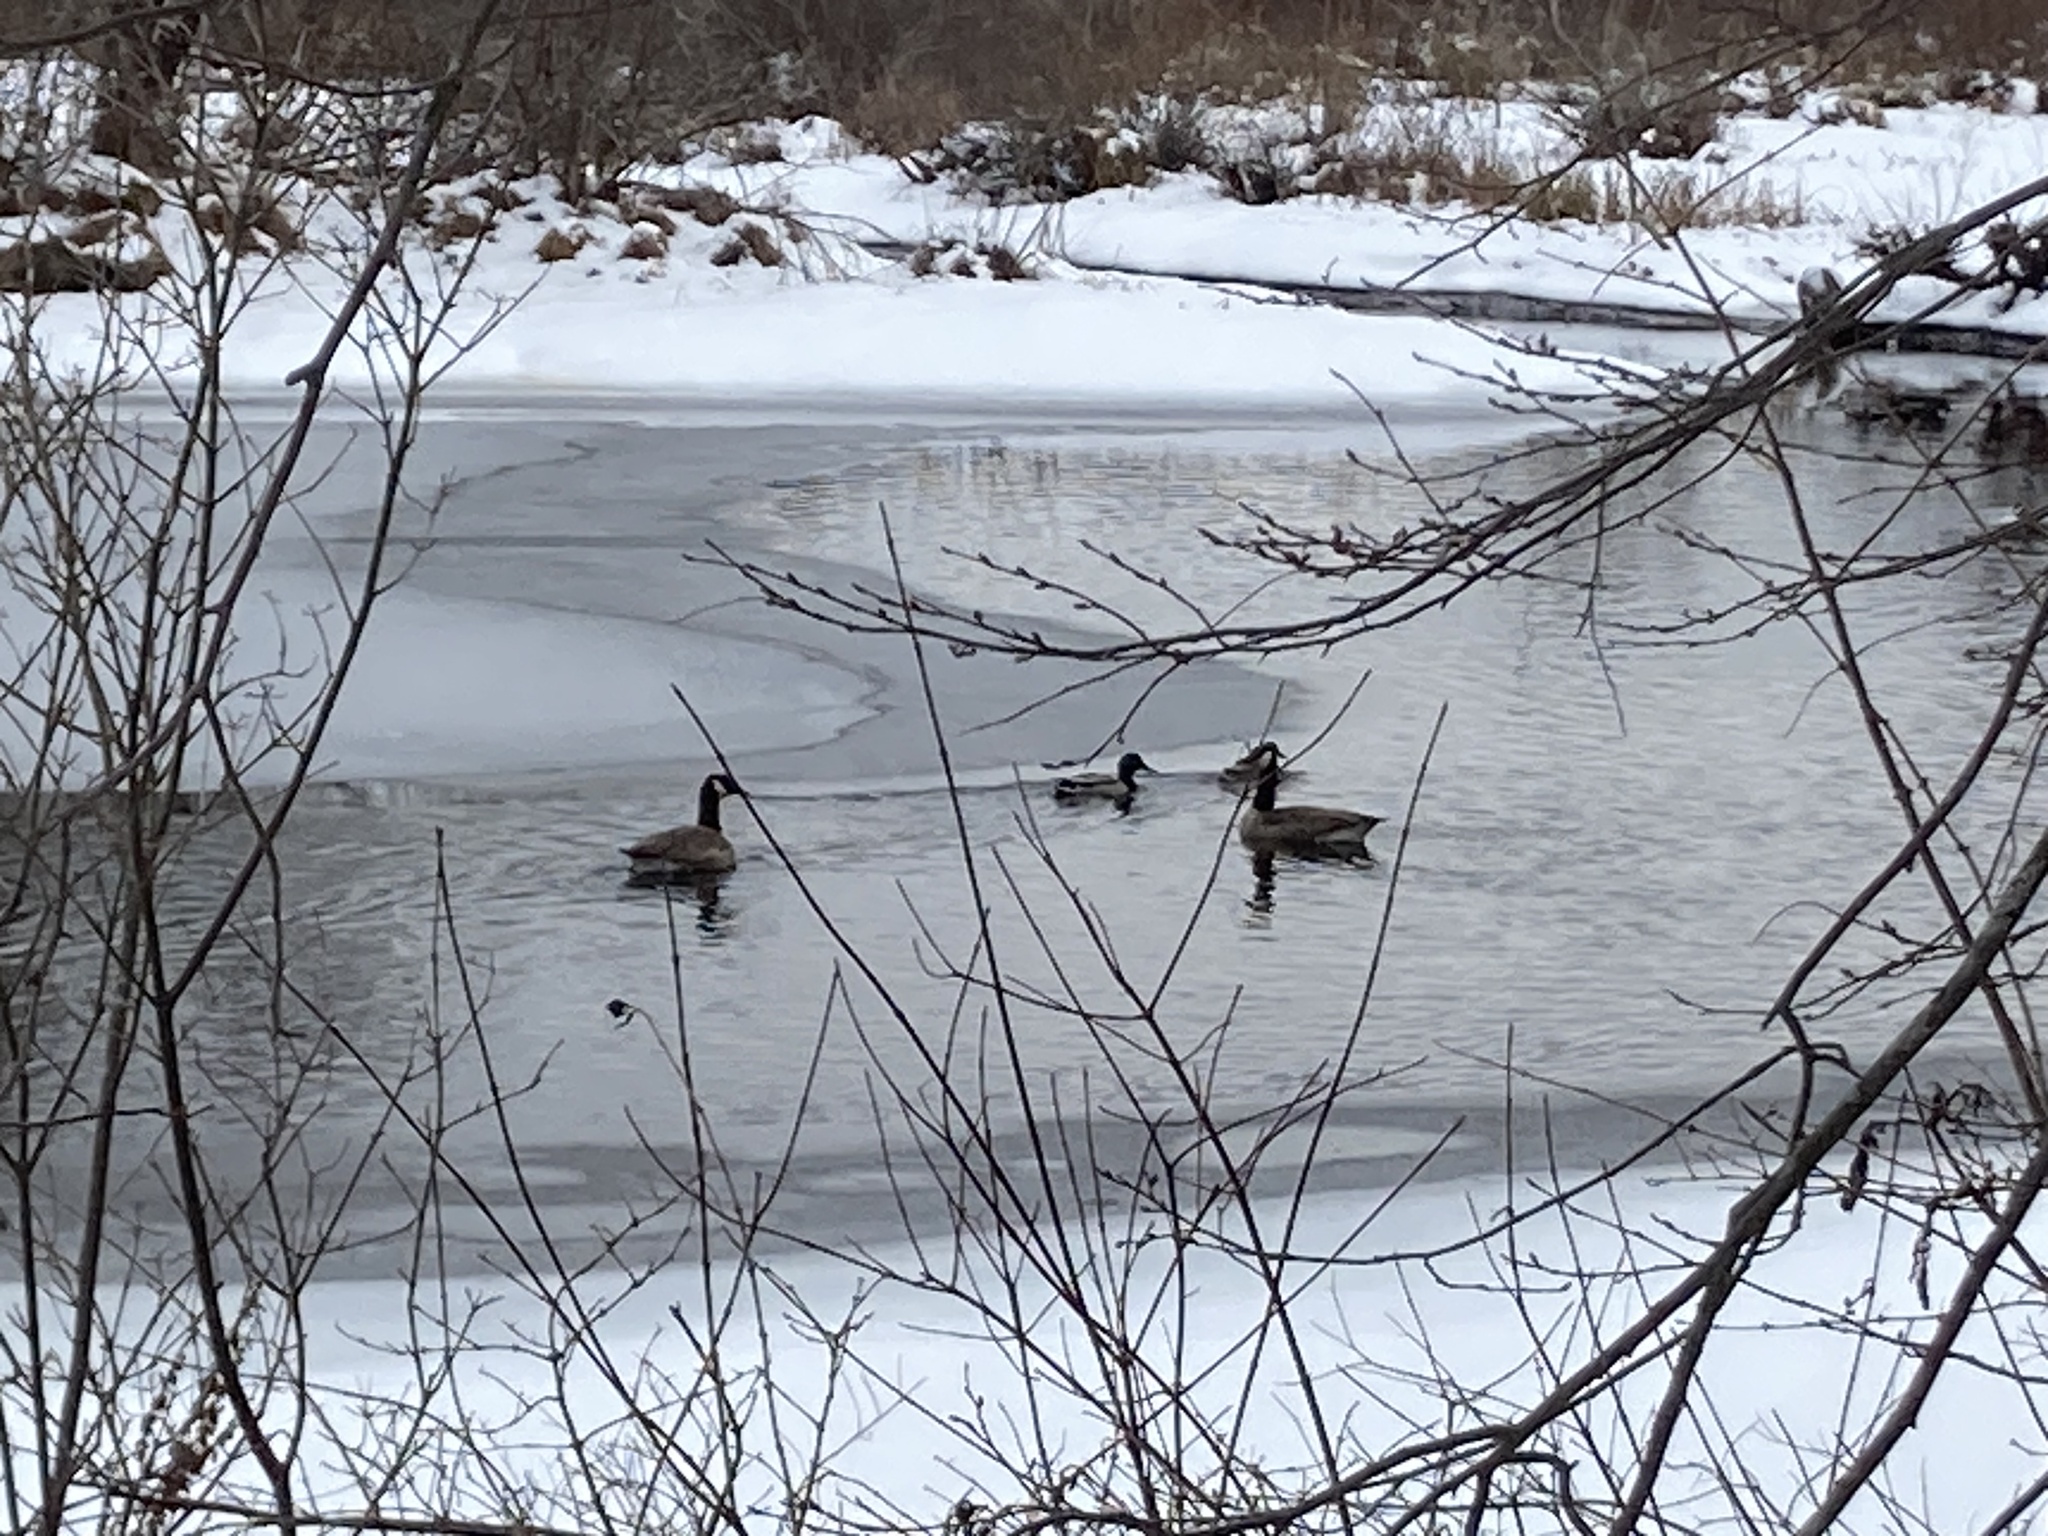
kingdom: Animalia
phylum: Chordata
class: Aves
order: Anseriformes
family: Anatidae
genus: Branta
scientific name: Branta canadensis
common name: Canada goose
